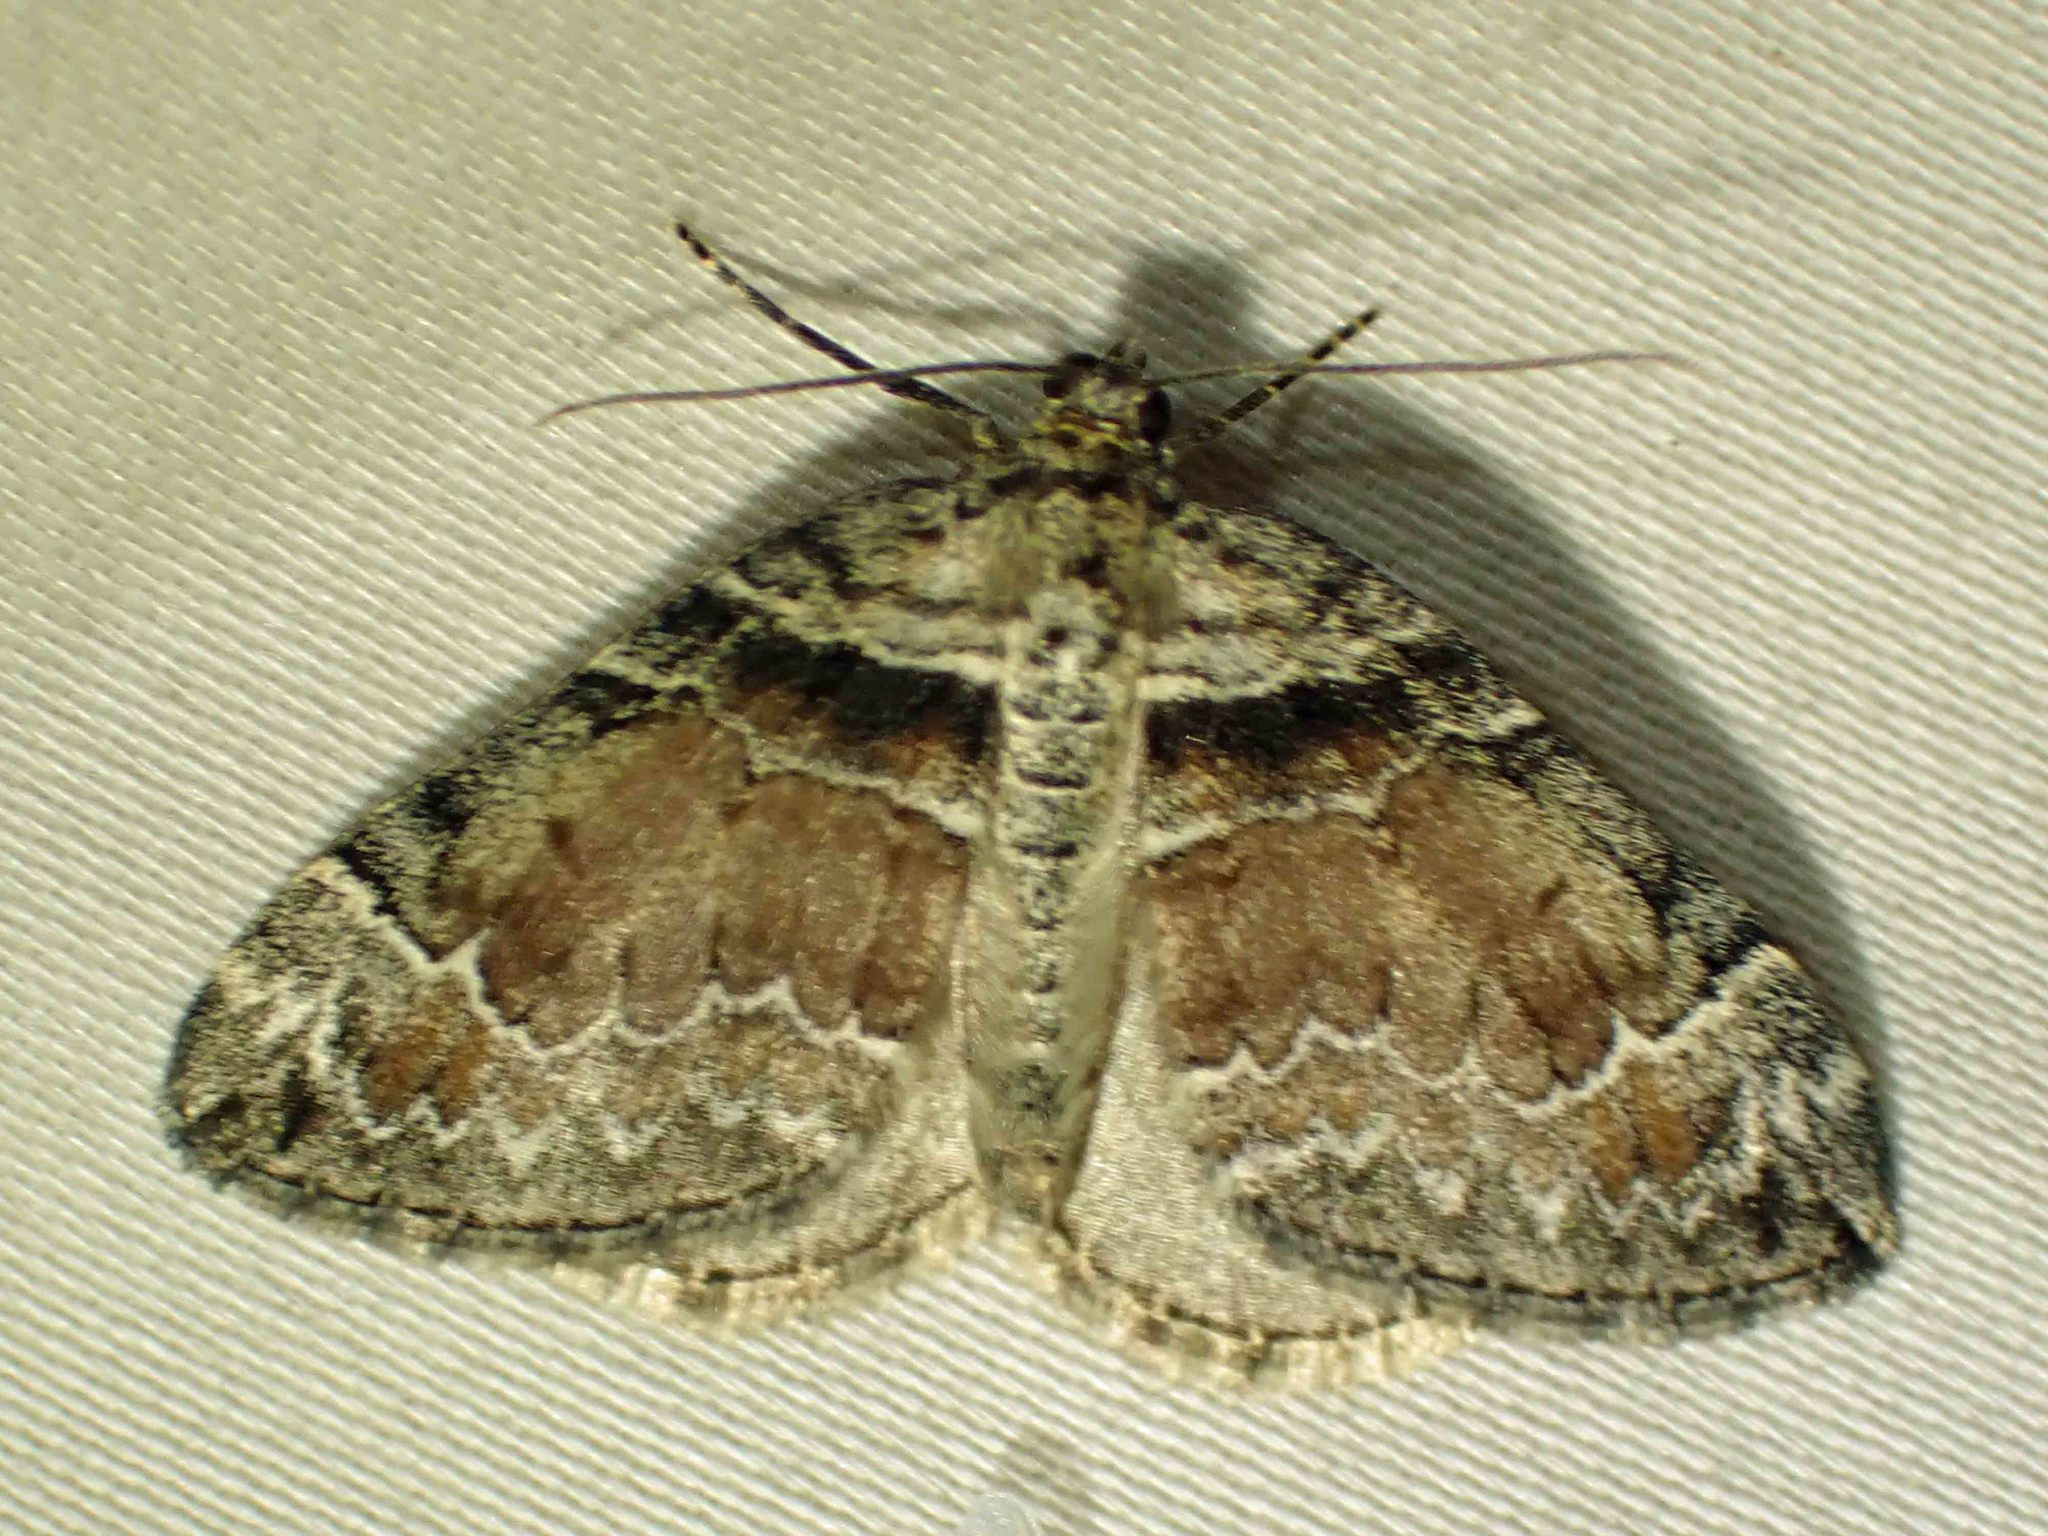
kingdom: Animalia
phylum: Arthropoda
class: Insecta
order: Lepidoptera
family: Geometridae
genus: Dysstroma
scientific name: Dysstroma hersiliata
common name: Orange-barred carpet
